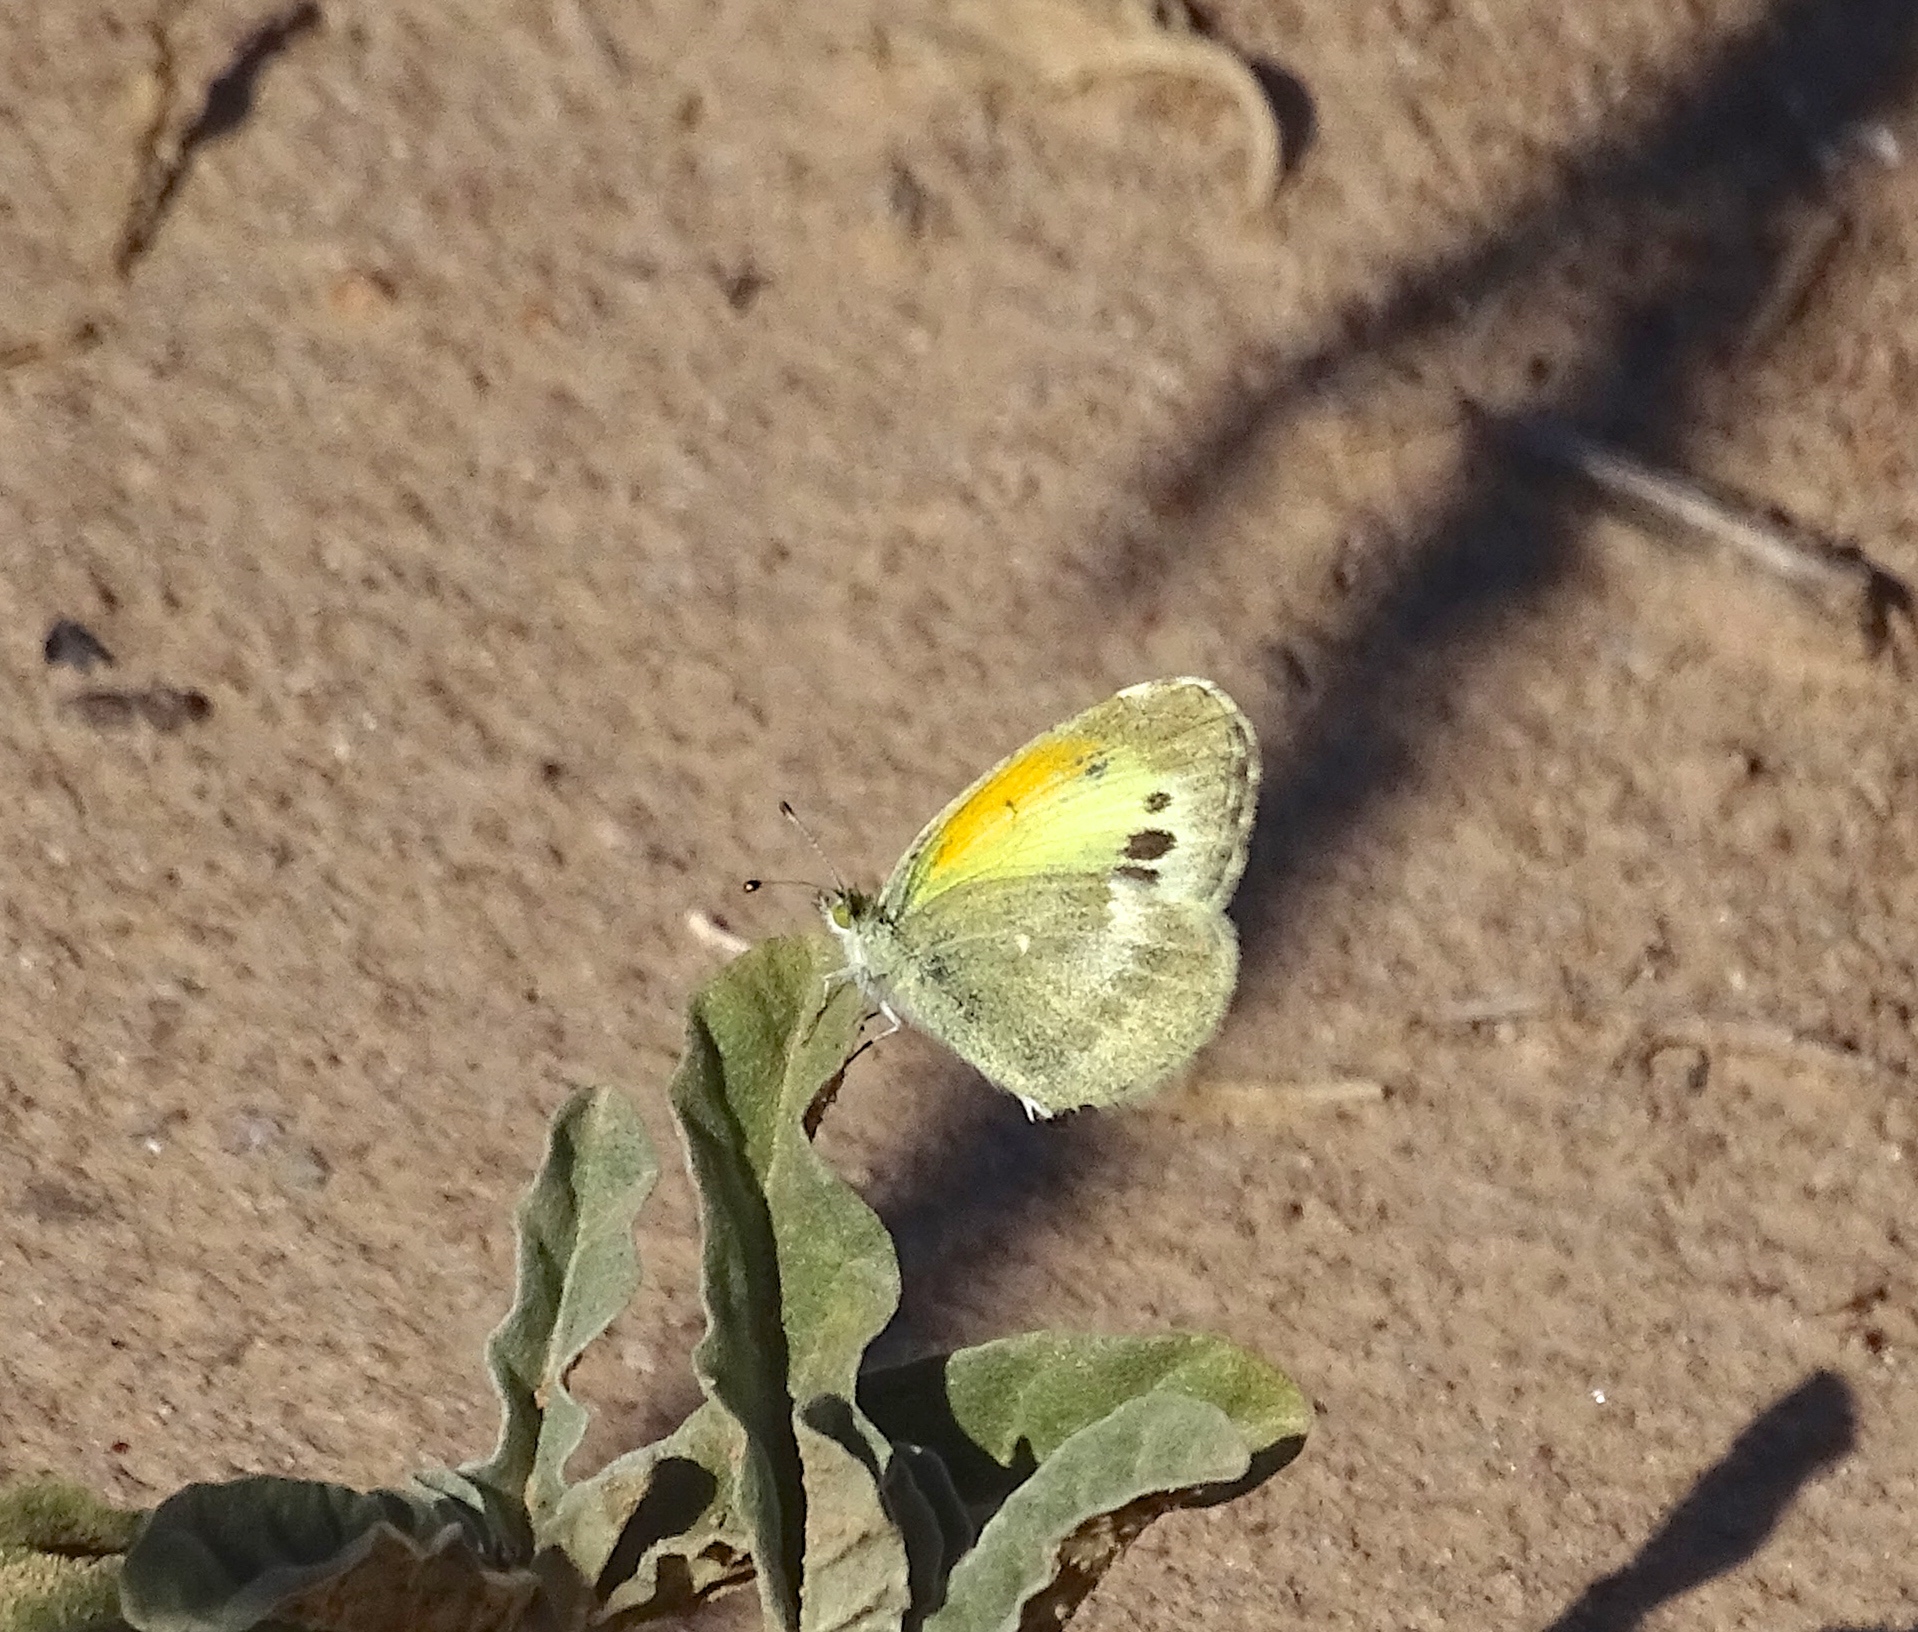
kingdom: Animalia
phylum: Arthropoda
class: Insecta
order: Lepidoptera
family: Pieridae
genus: Nathalis
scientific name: Nathalis iole
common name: Dainty sulphur
